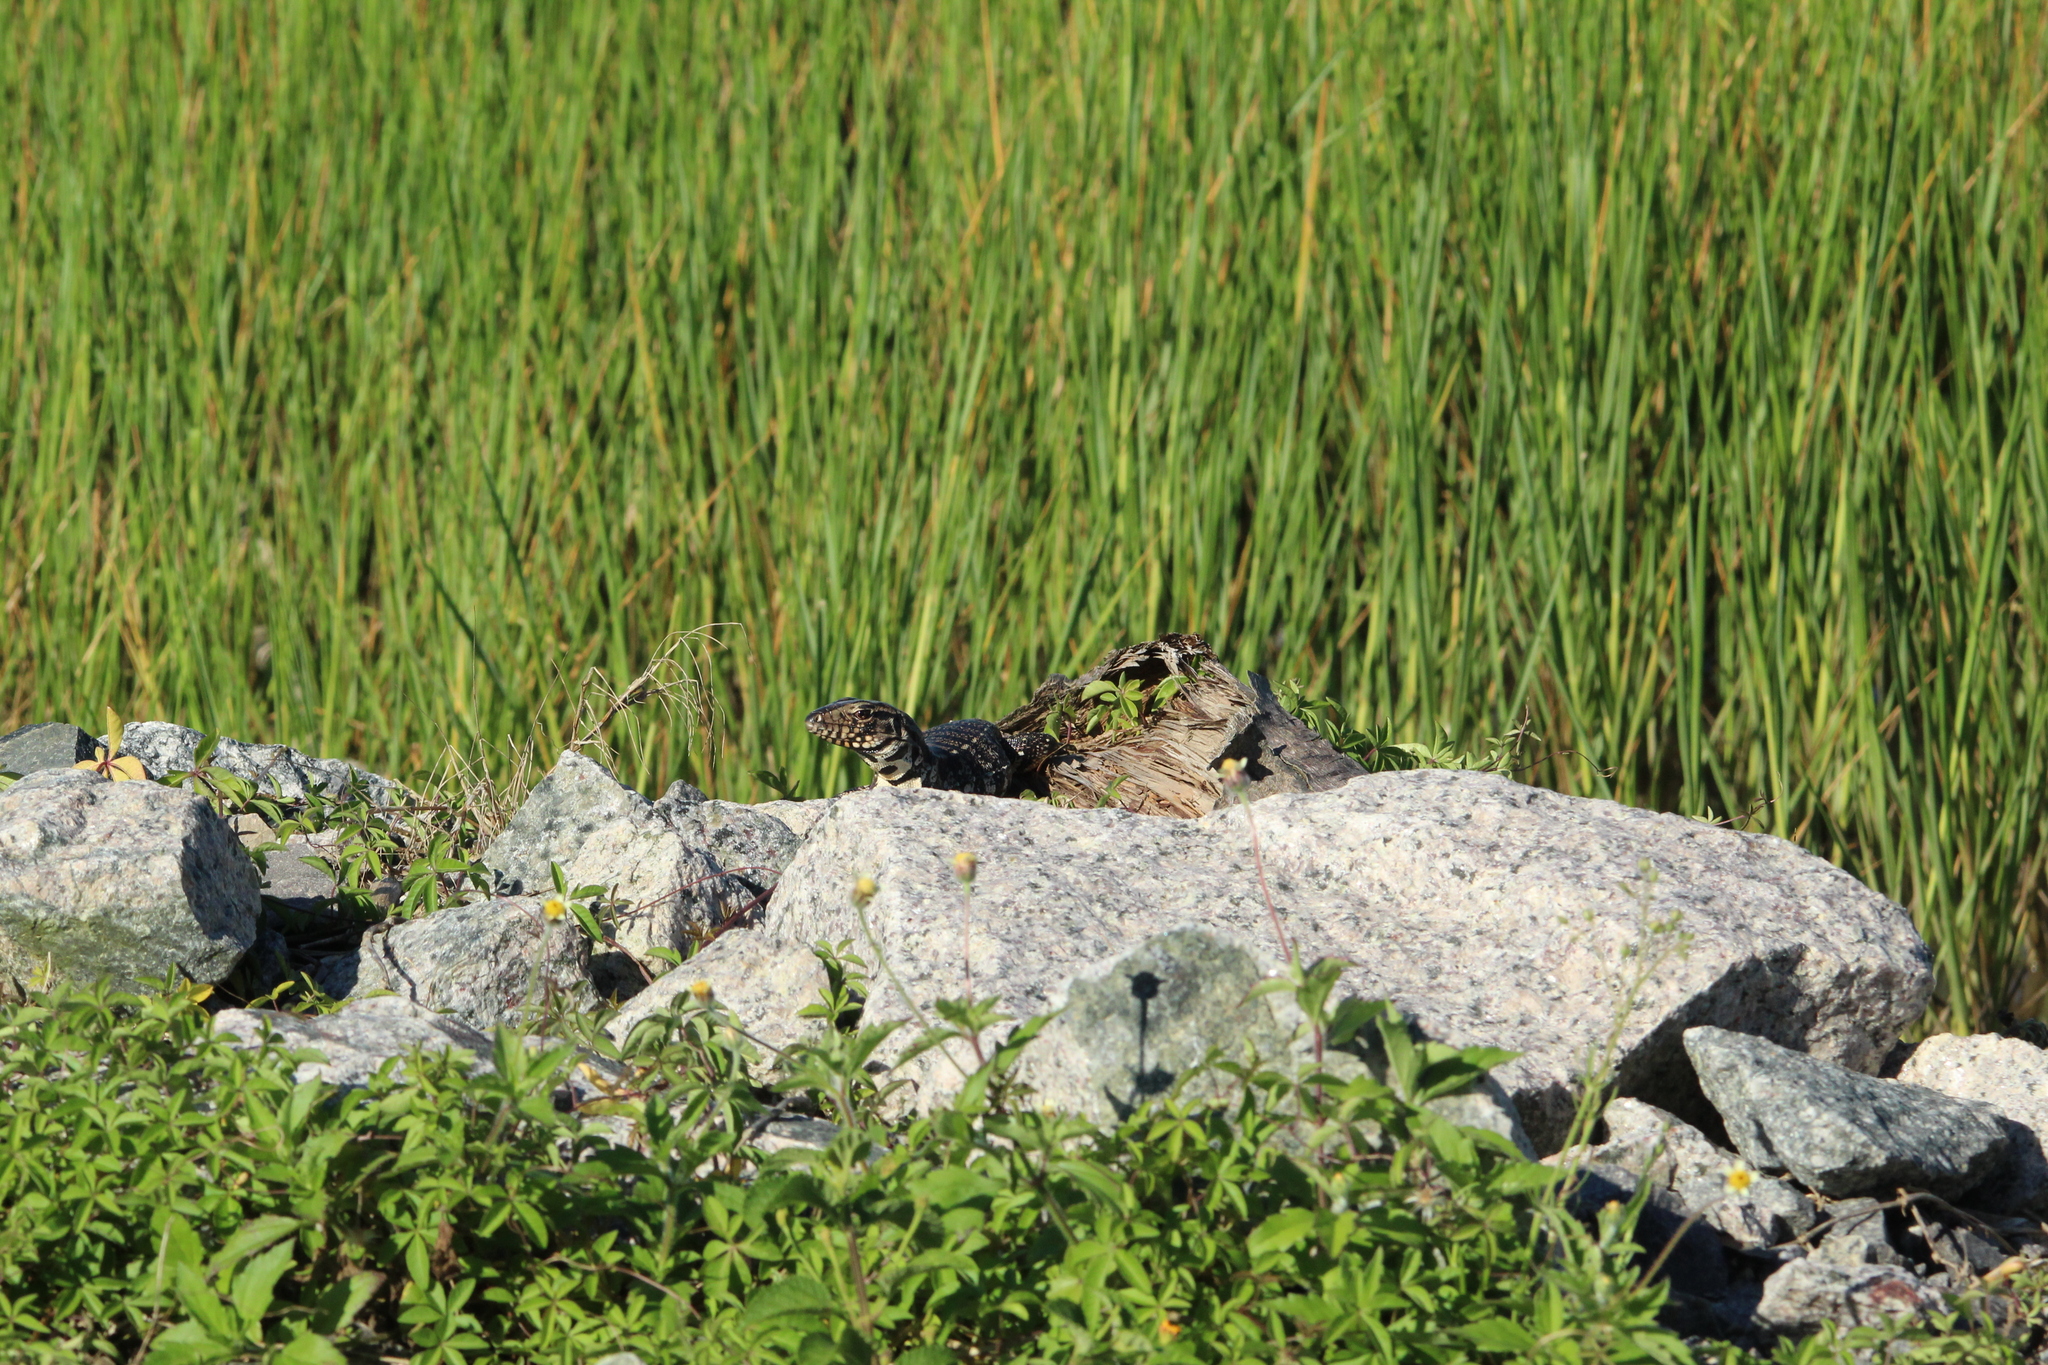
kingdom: Animalia
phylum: Chordata
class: Squamata
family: Teiidae
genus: Salvator
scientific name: Salvator merianae
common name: Argentine black and white tegu
